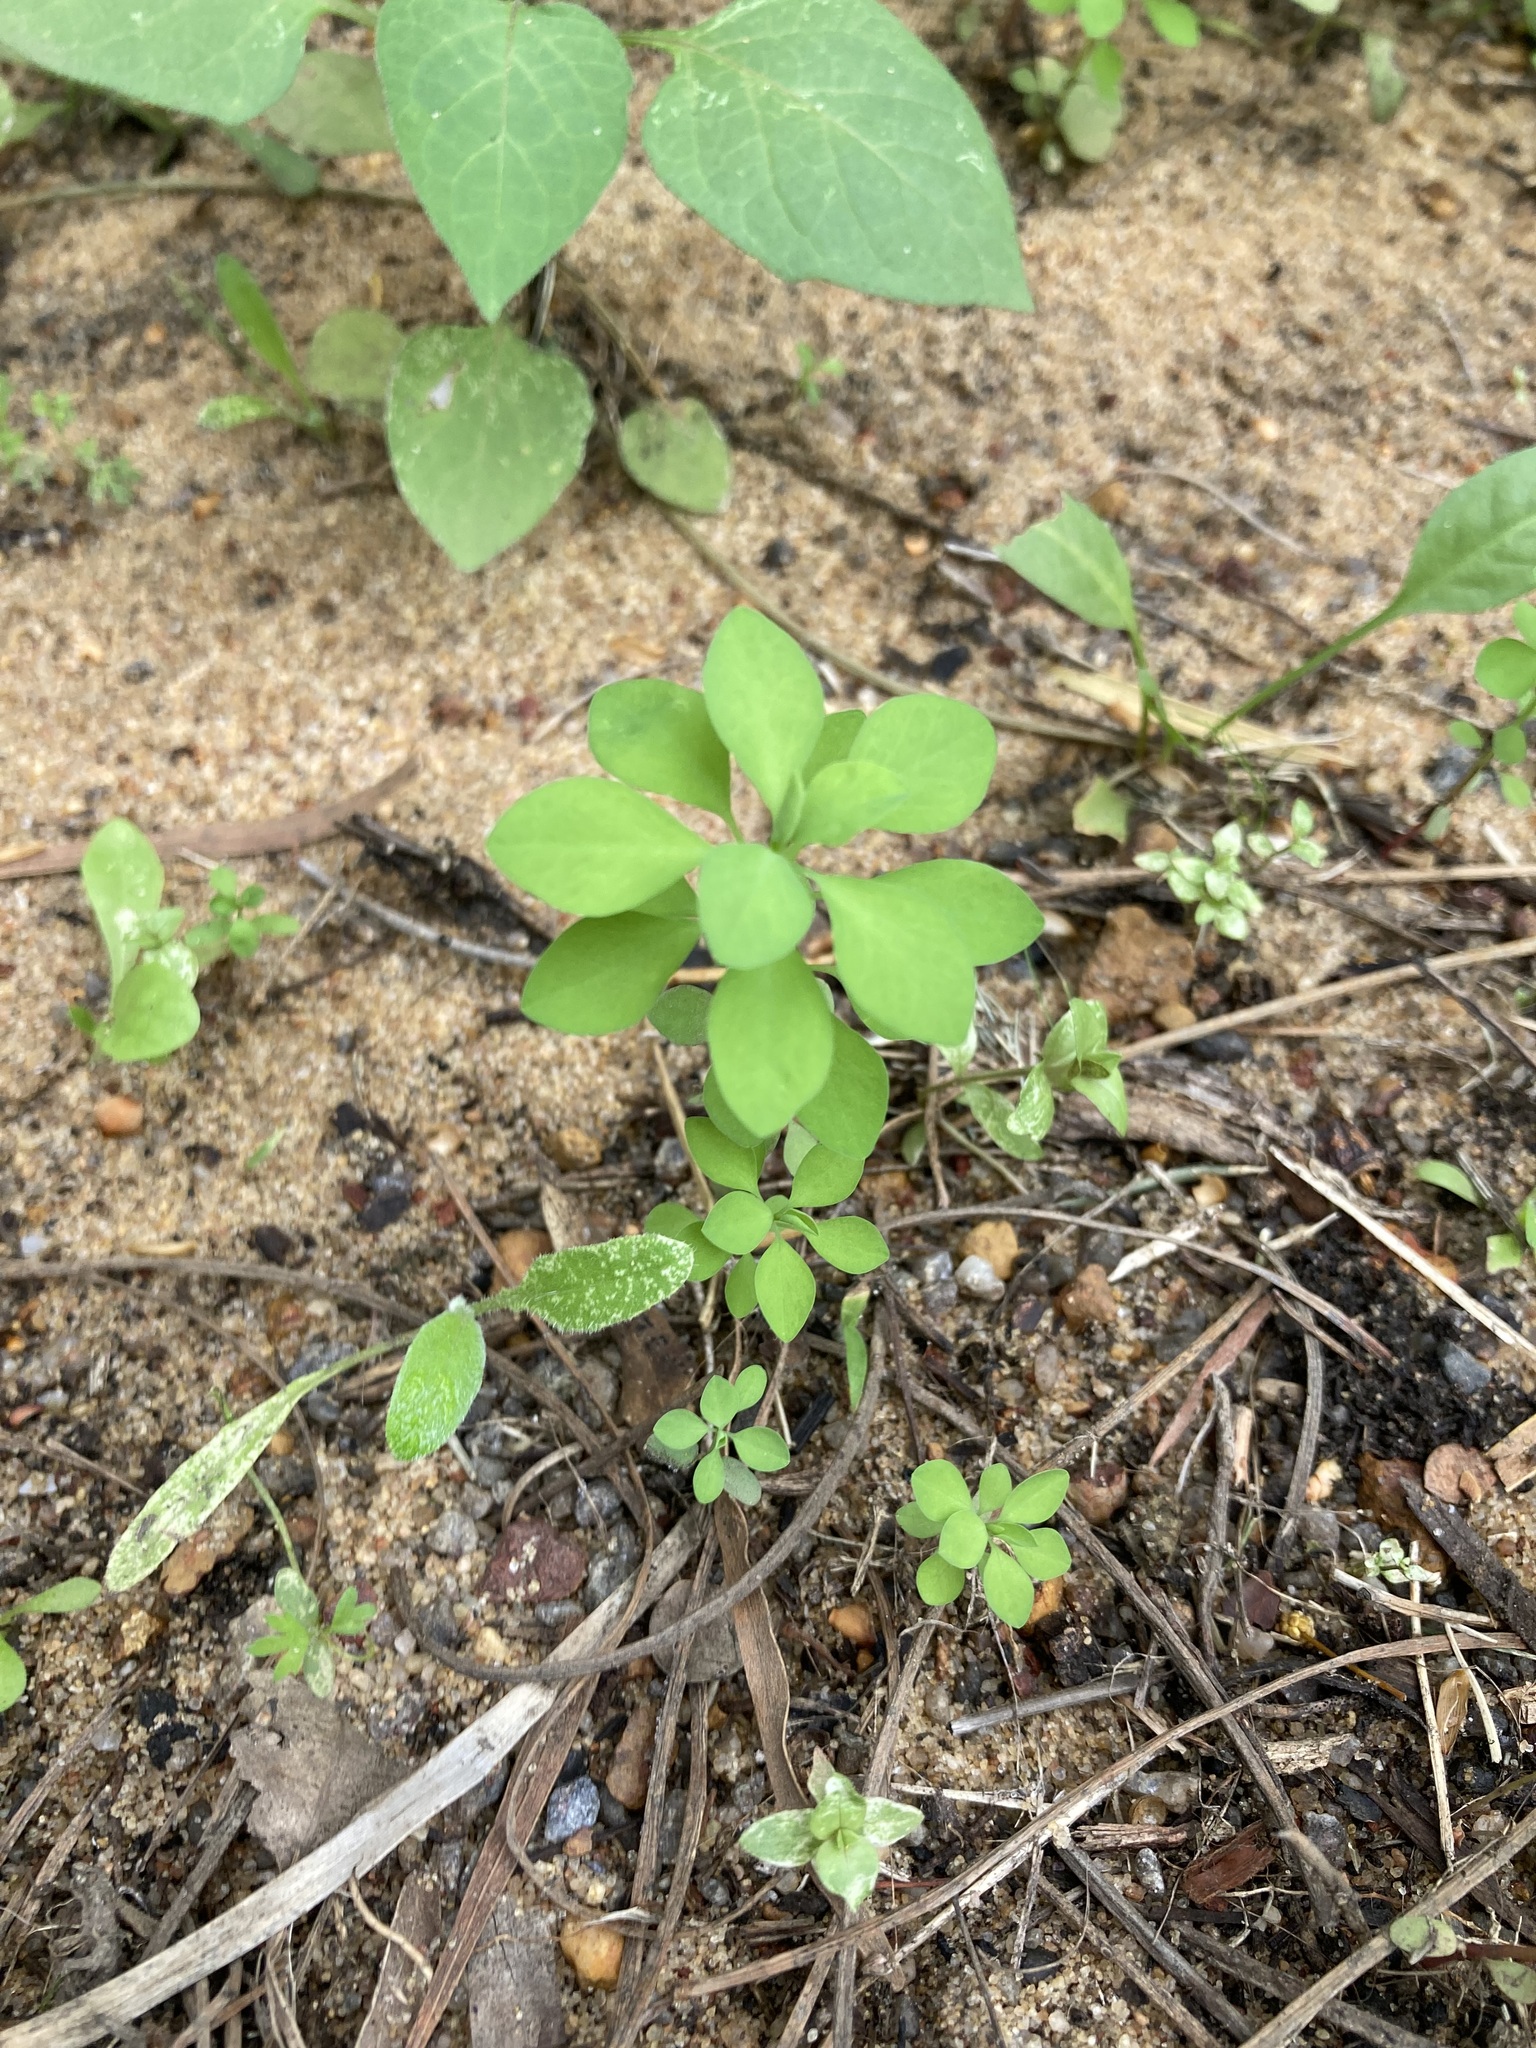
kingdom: Plantae
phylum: Tracheophyta
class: Magnoliopsida
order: Malpighiales
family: Euphorbiaceae
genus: Euphorbia
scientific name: Euphorbia peplus
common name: Petty spurge
